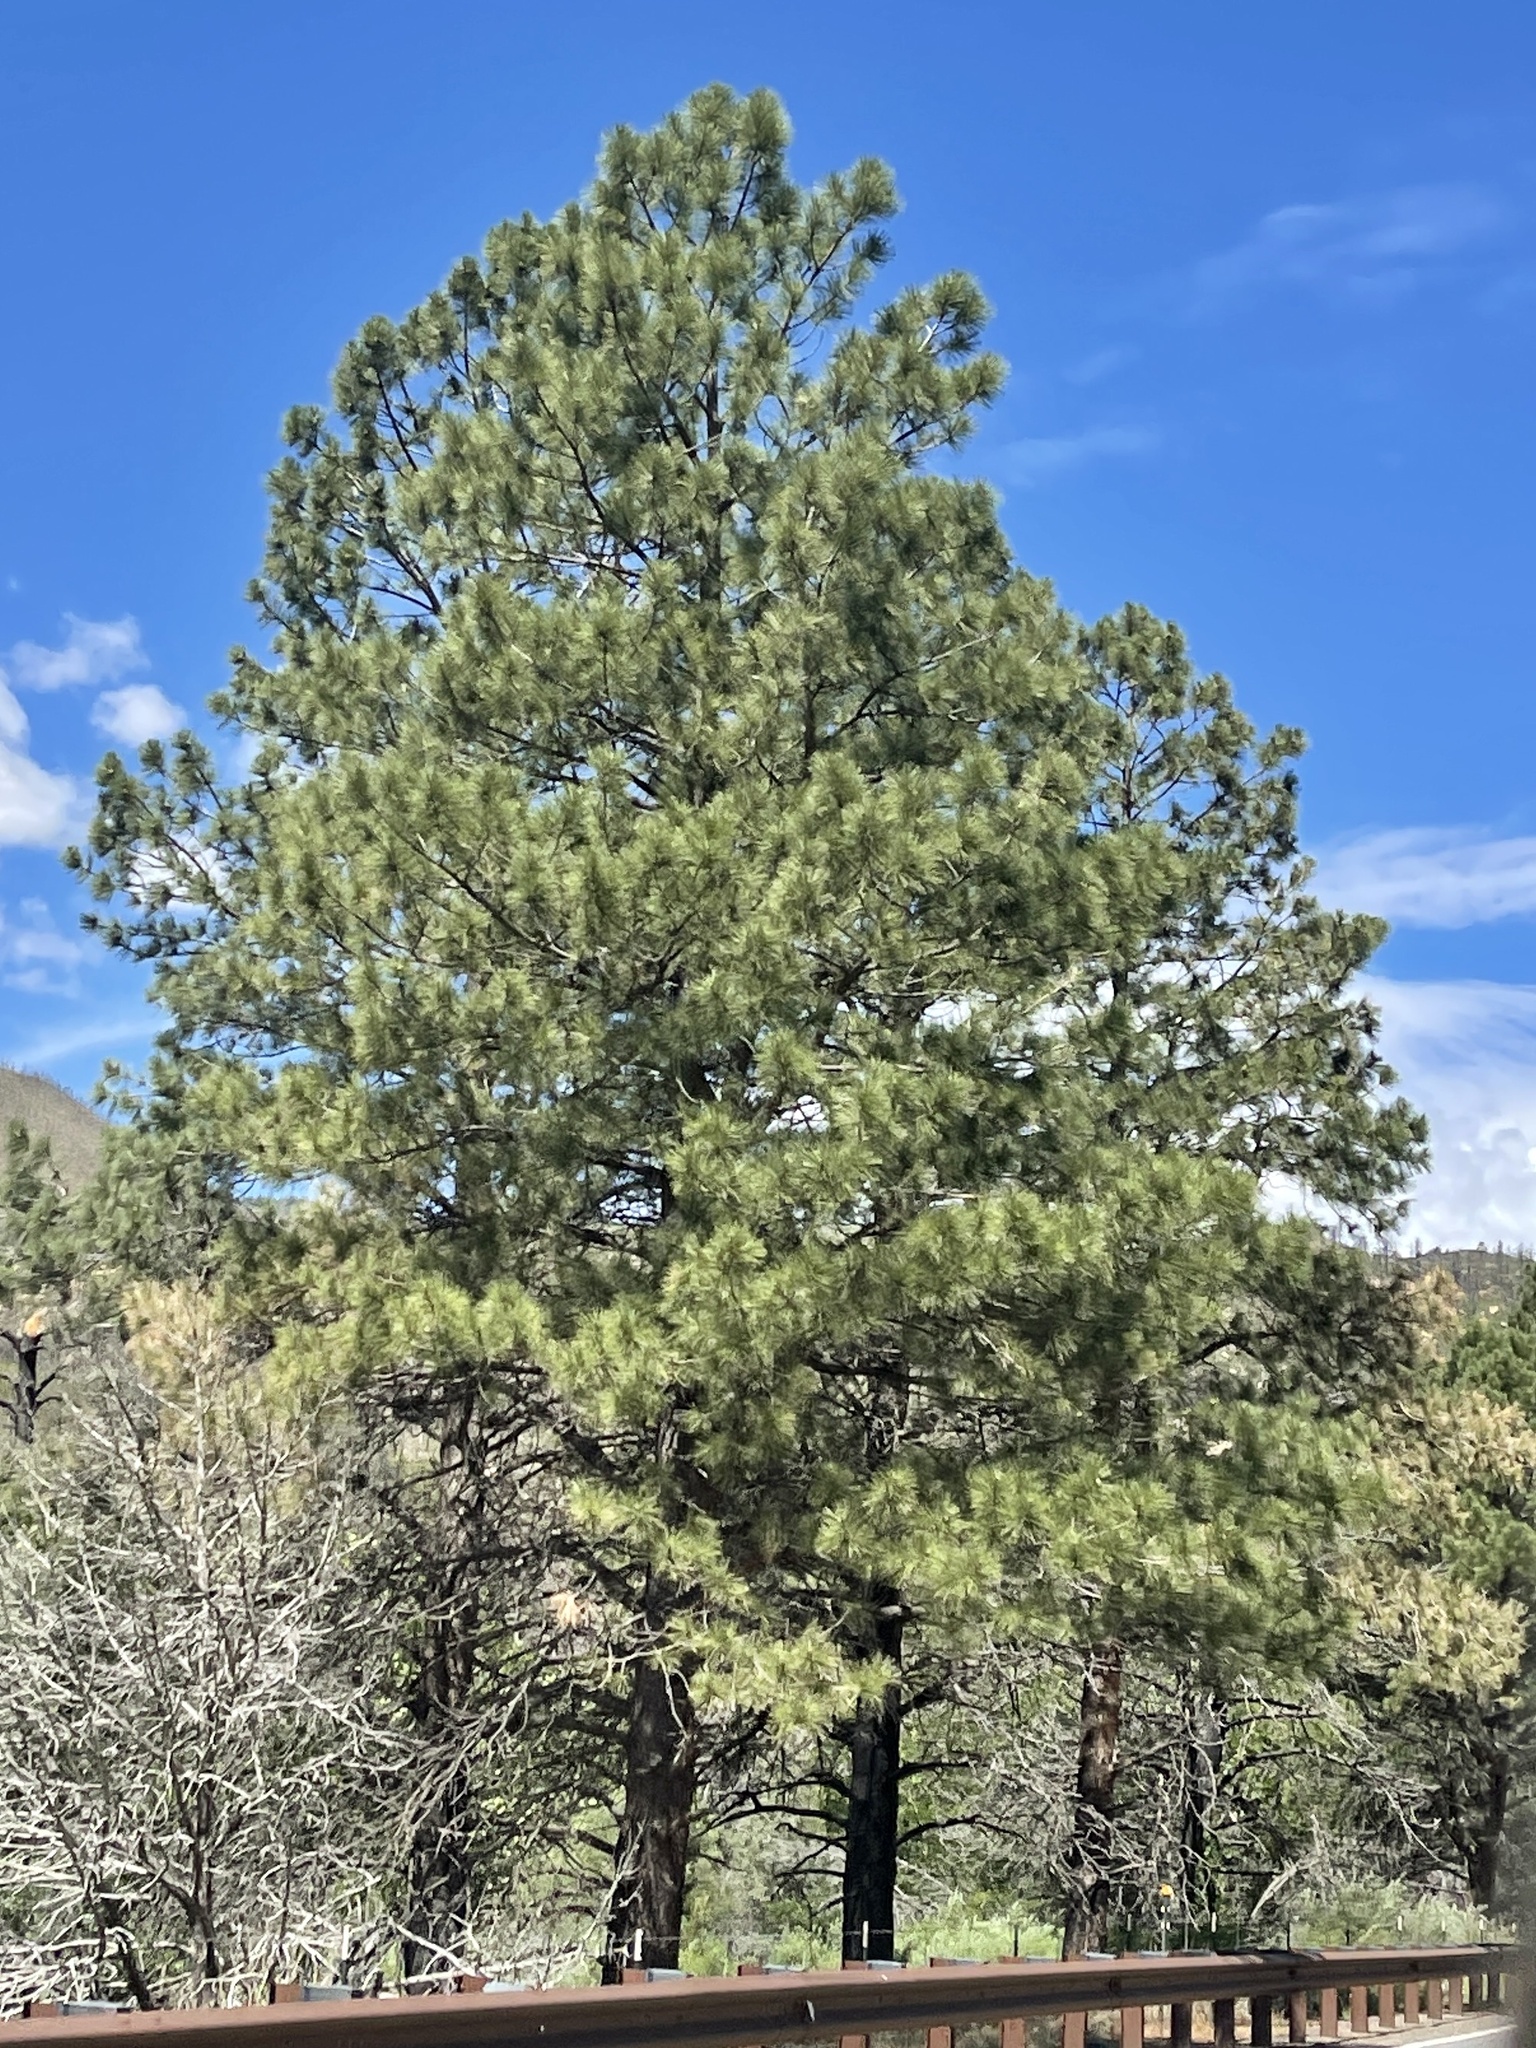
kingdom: Plantae
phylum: Tracheophyta
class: Pinopsida
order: Pinales
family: Pinaceae
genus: Pinus
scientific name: Pinus ponderosa
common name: Western yellow-pine
